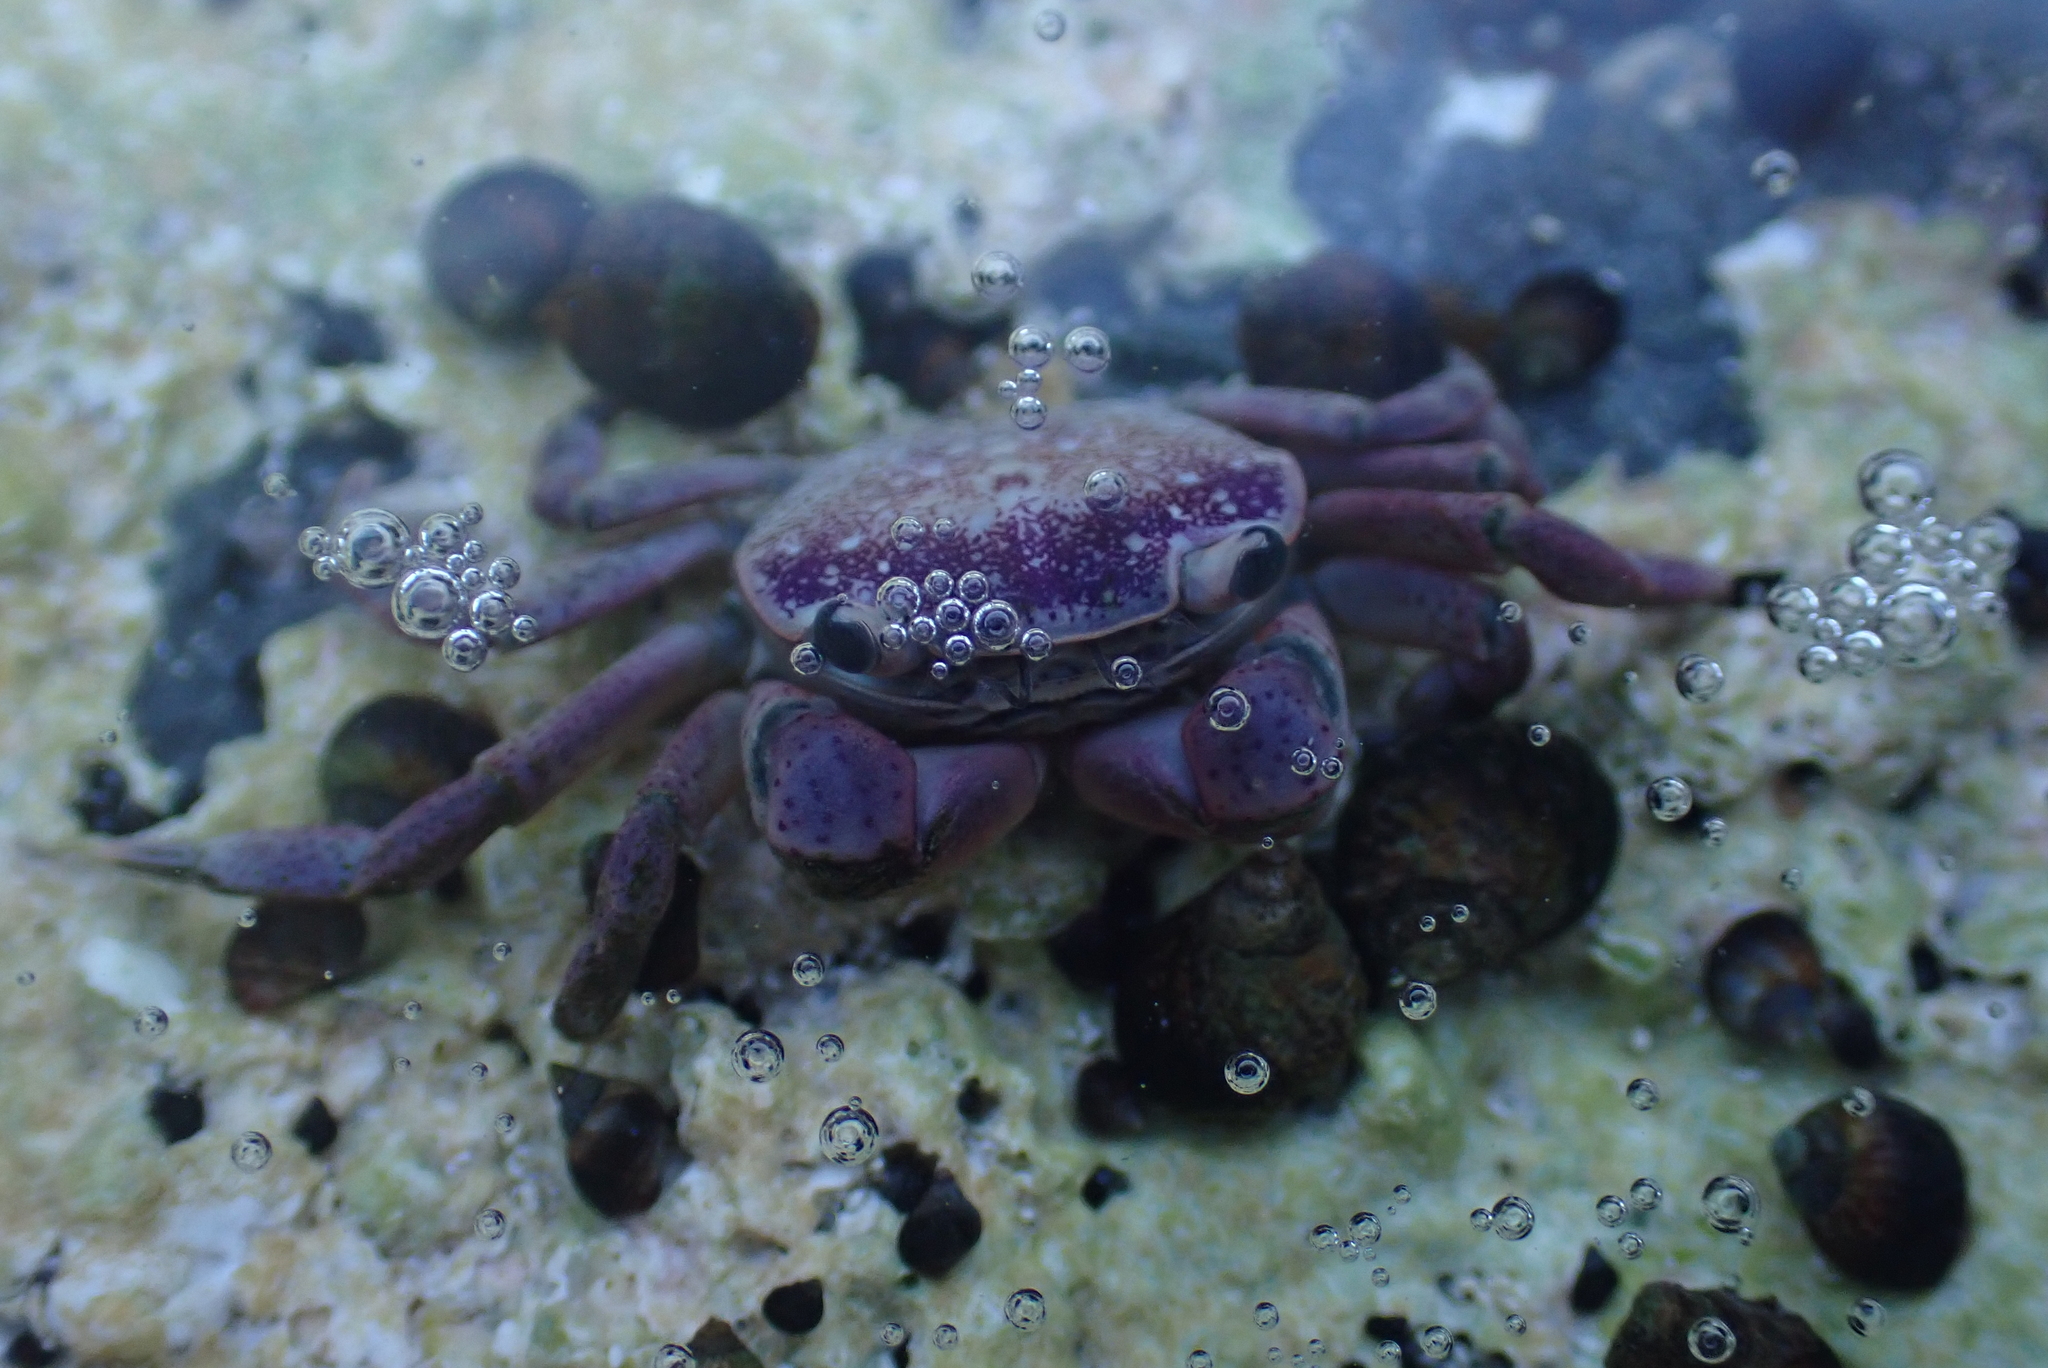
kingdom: Animalia
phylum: Arthropoda
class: Malacostraca
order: Decapoda
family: Varunidae
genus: Cyclograpsus
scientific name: Cyclograpsus punctatus
